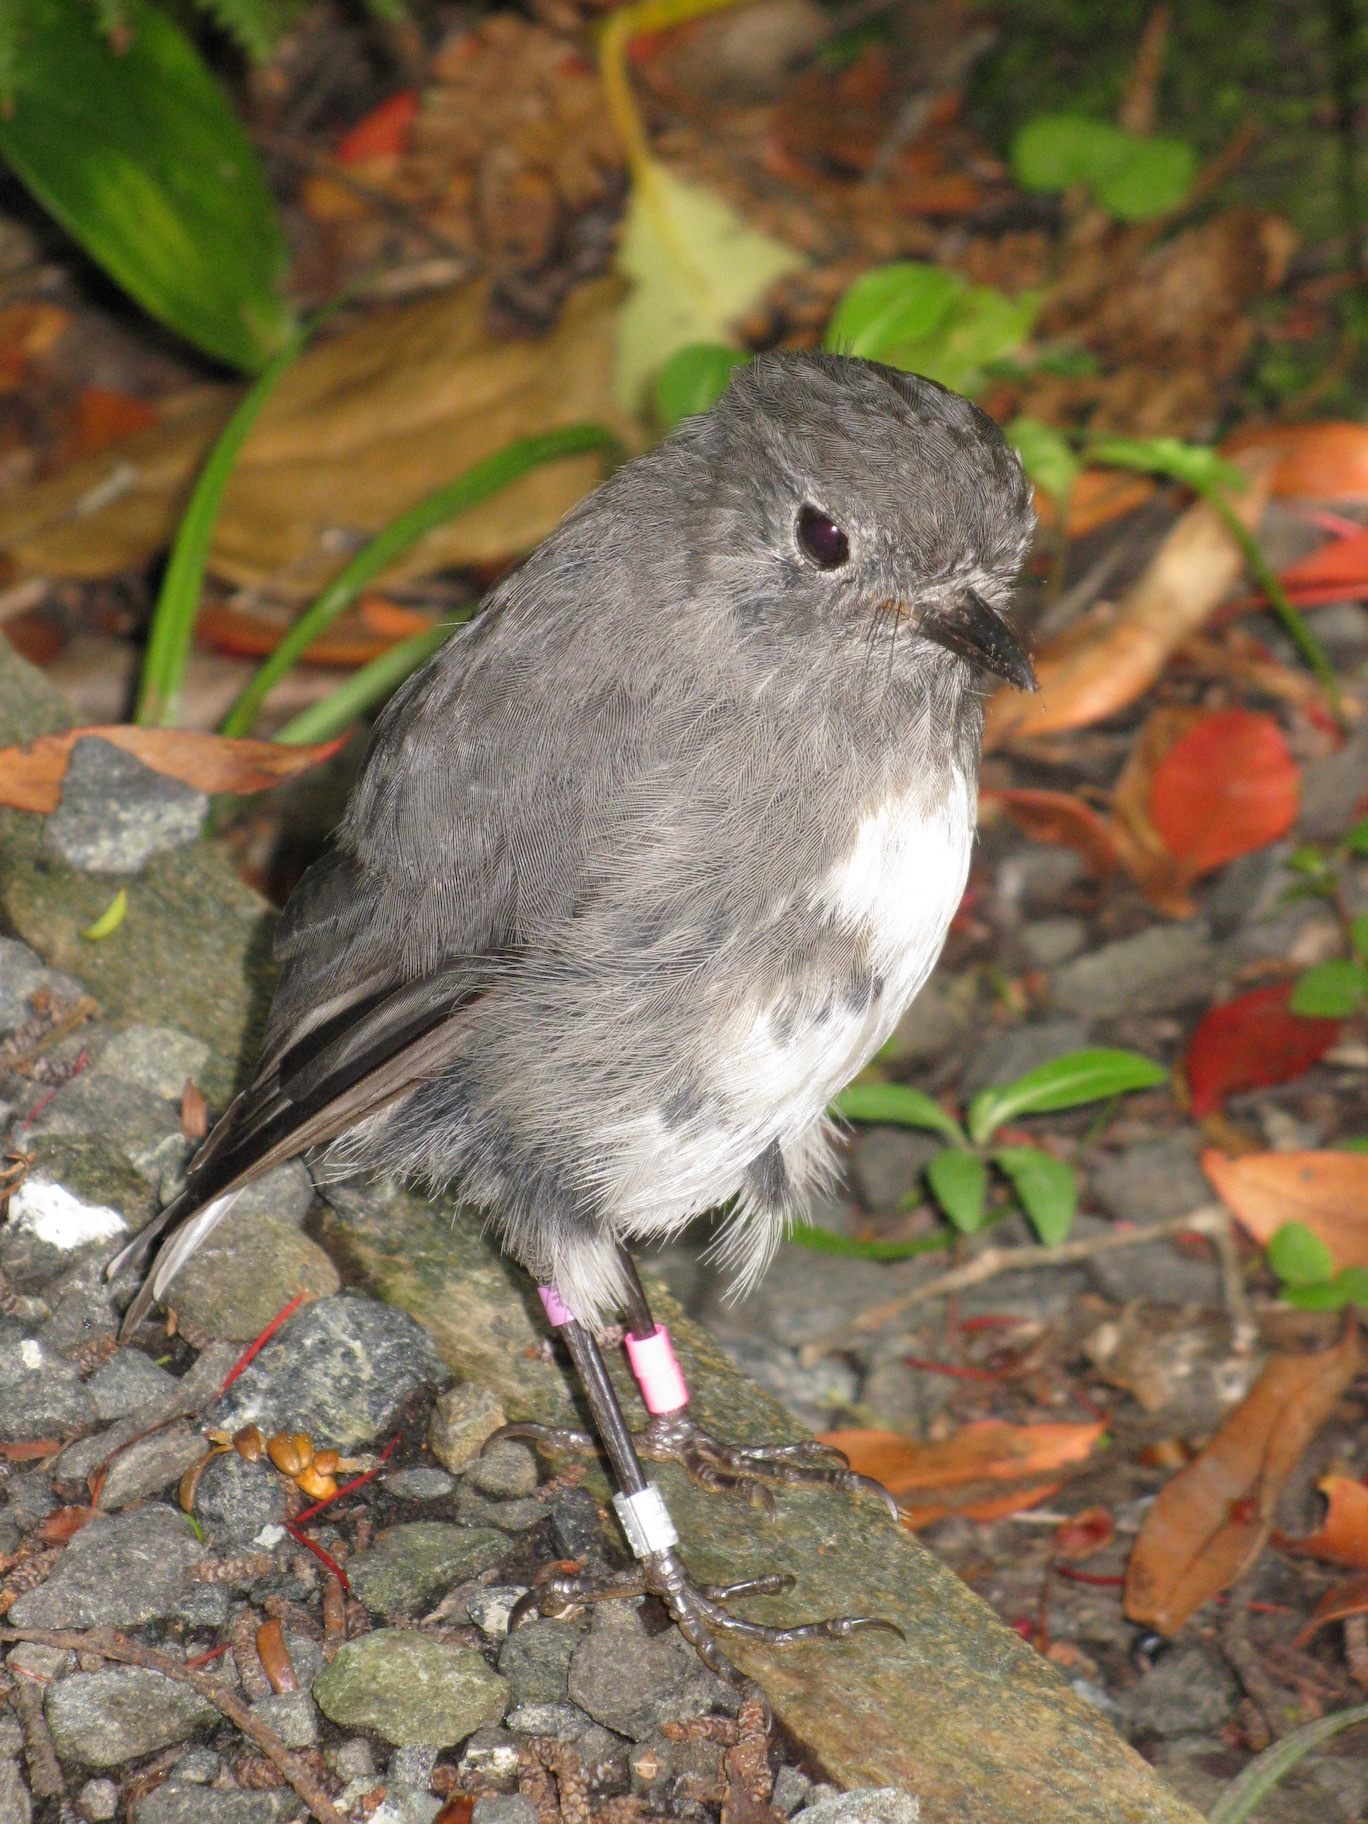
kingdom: Animalia
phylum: Chordata
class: Aves
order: Passeriformes
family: Petroicidae
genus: Petroica
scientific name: Petroica australis
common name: New zealand robin
